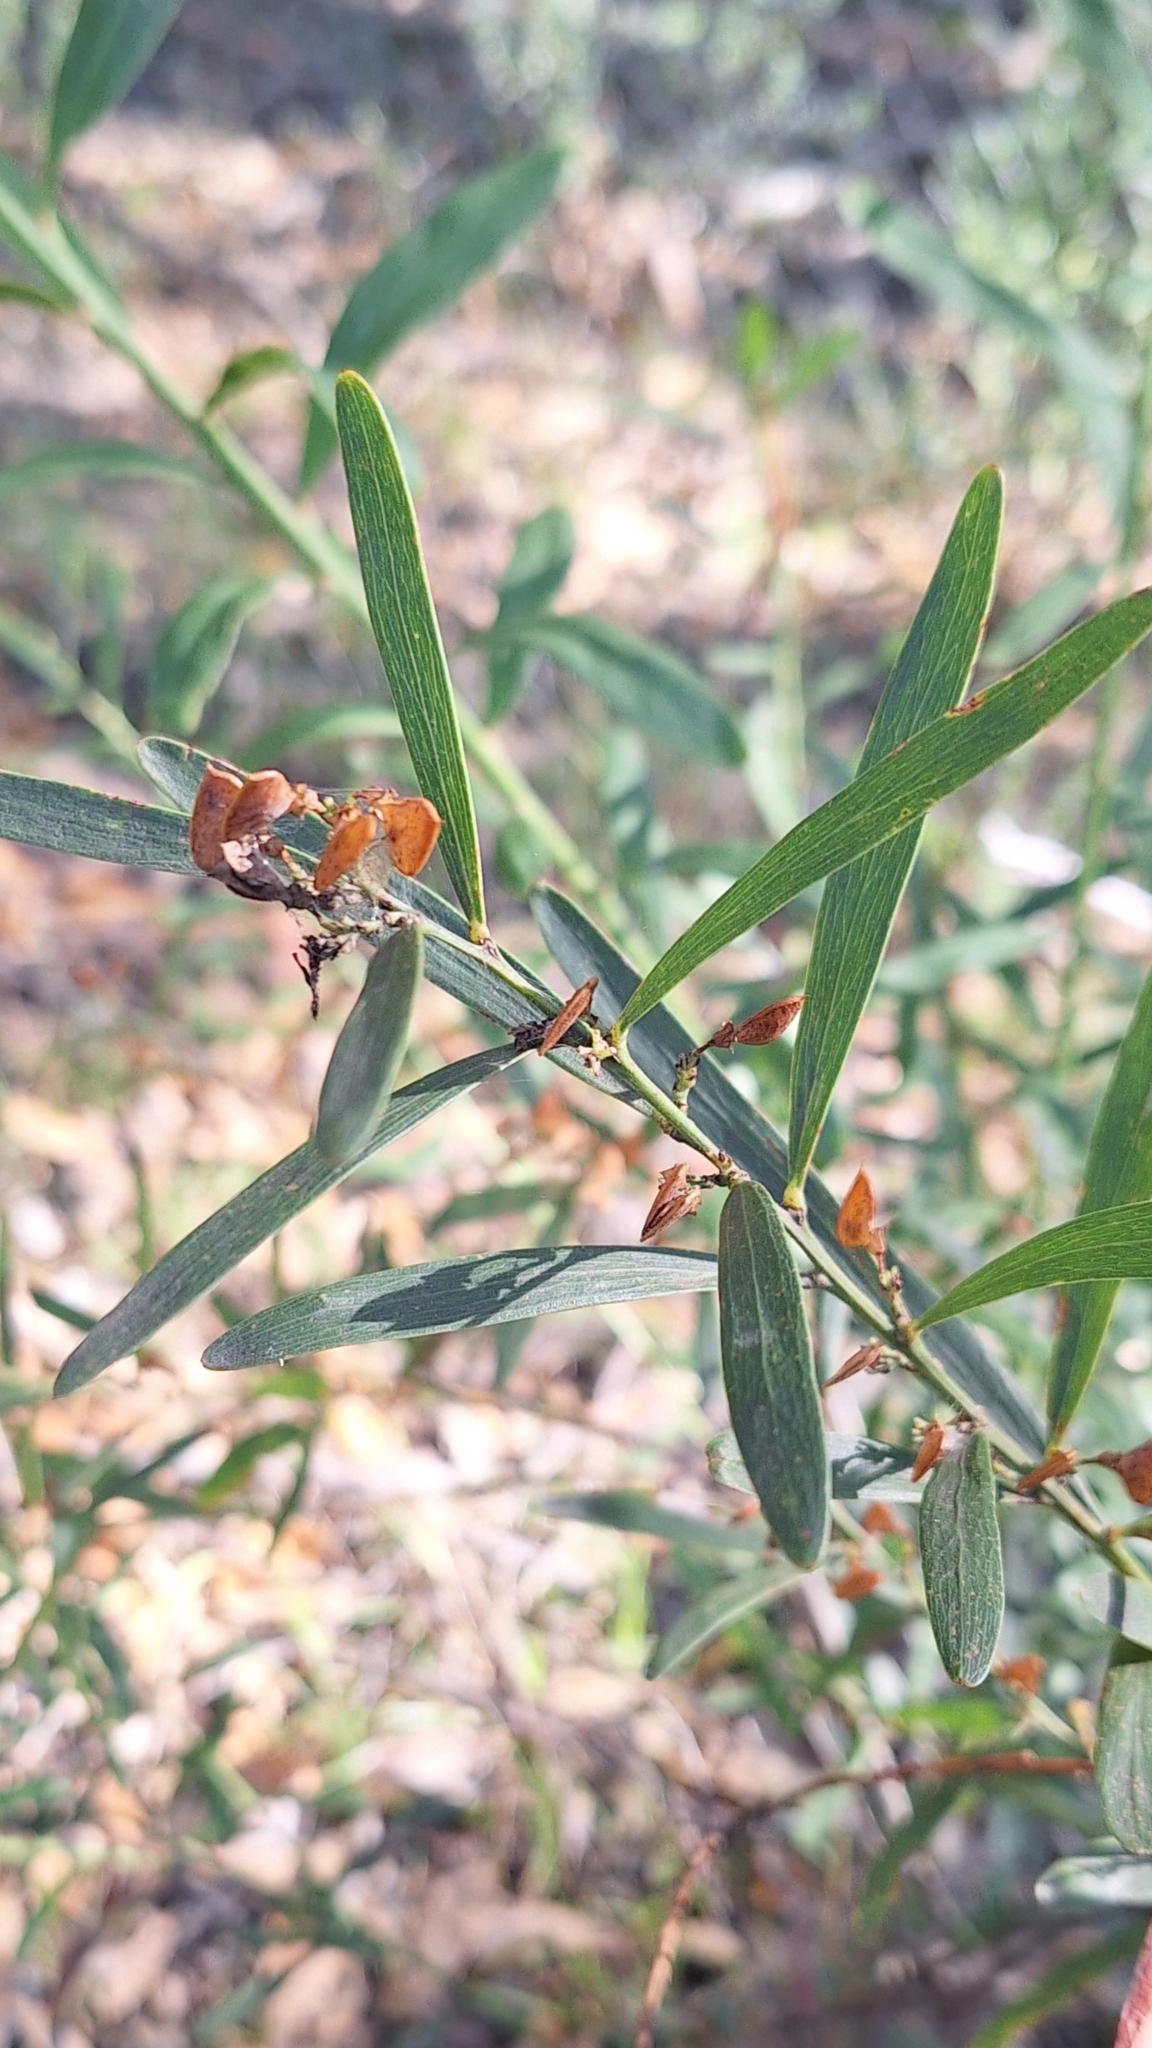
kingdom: Plantae
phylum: Tracheophyta
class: Magnoliopsida
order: Fabales
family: Fabaceae
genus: Daviesia
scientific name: Daviesia leptophylla
